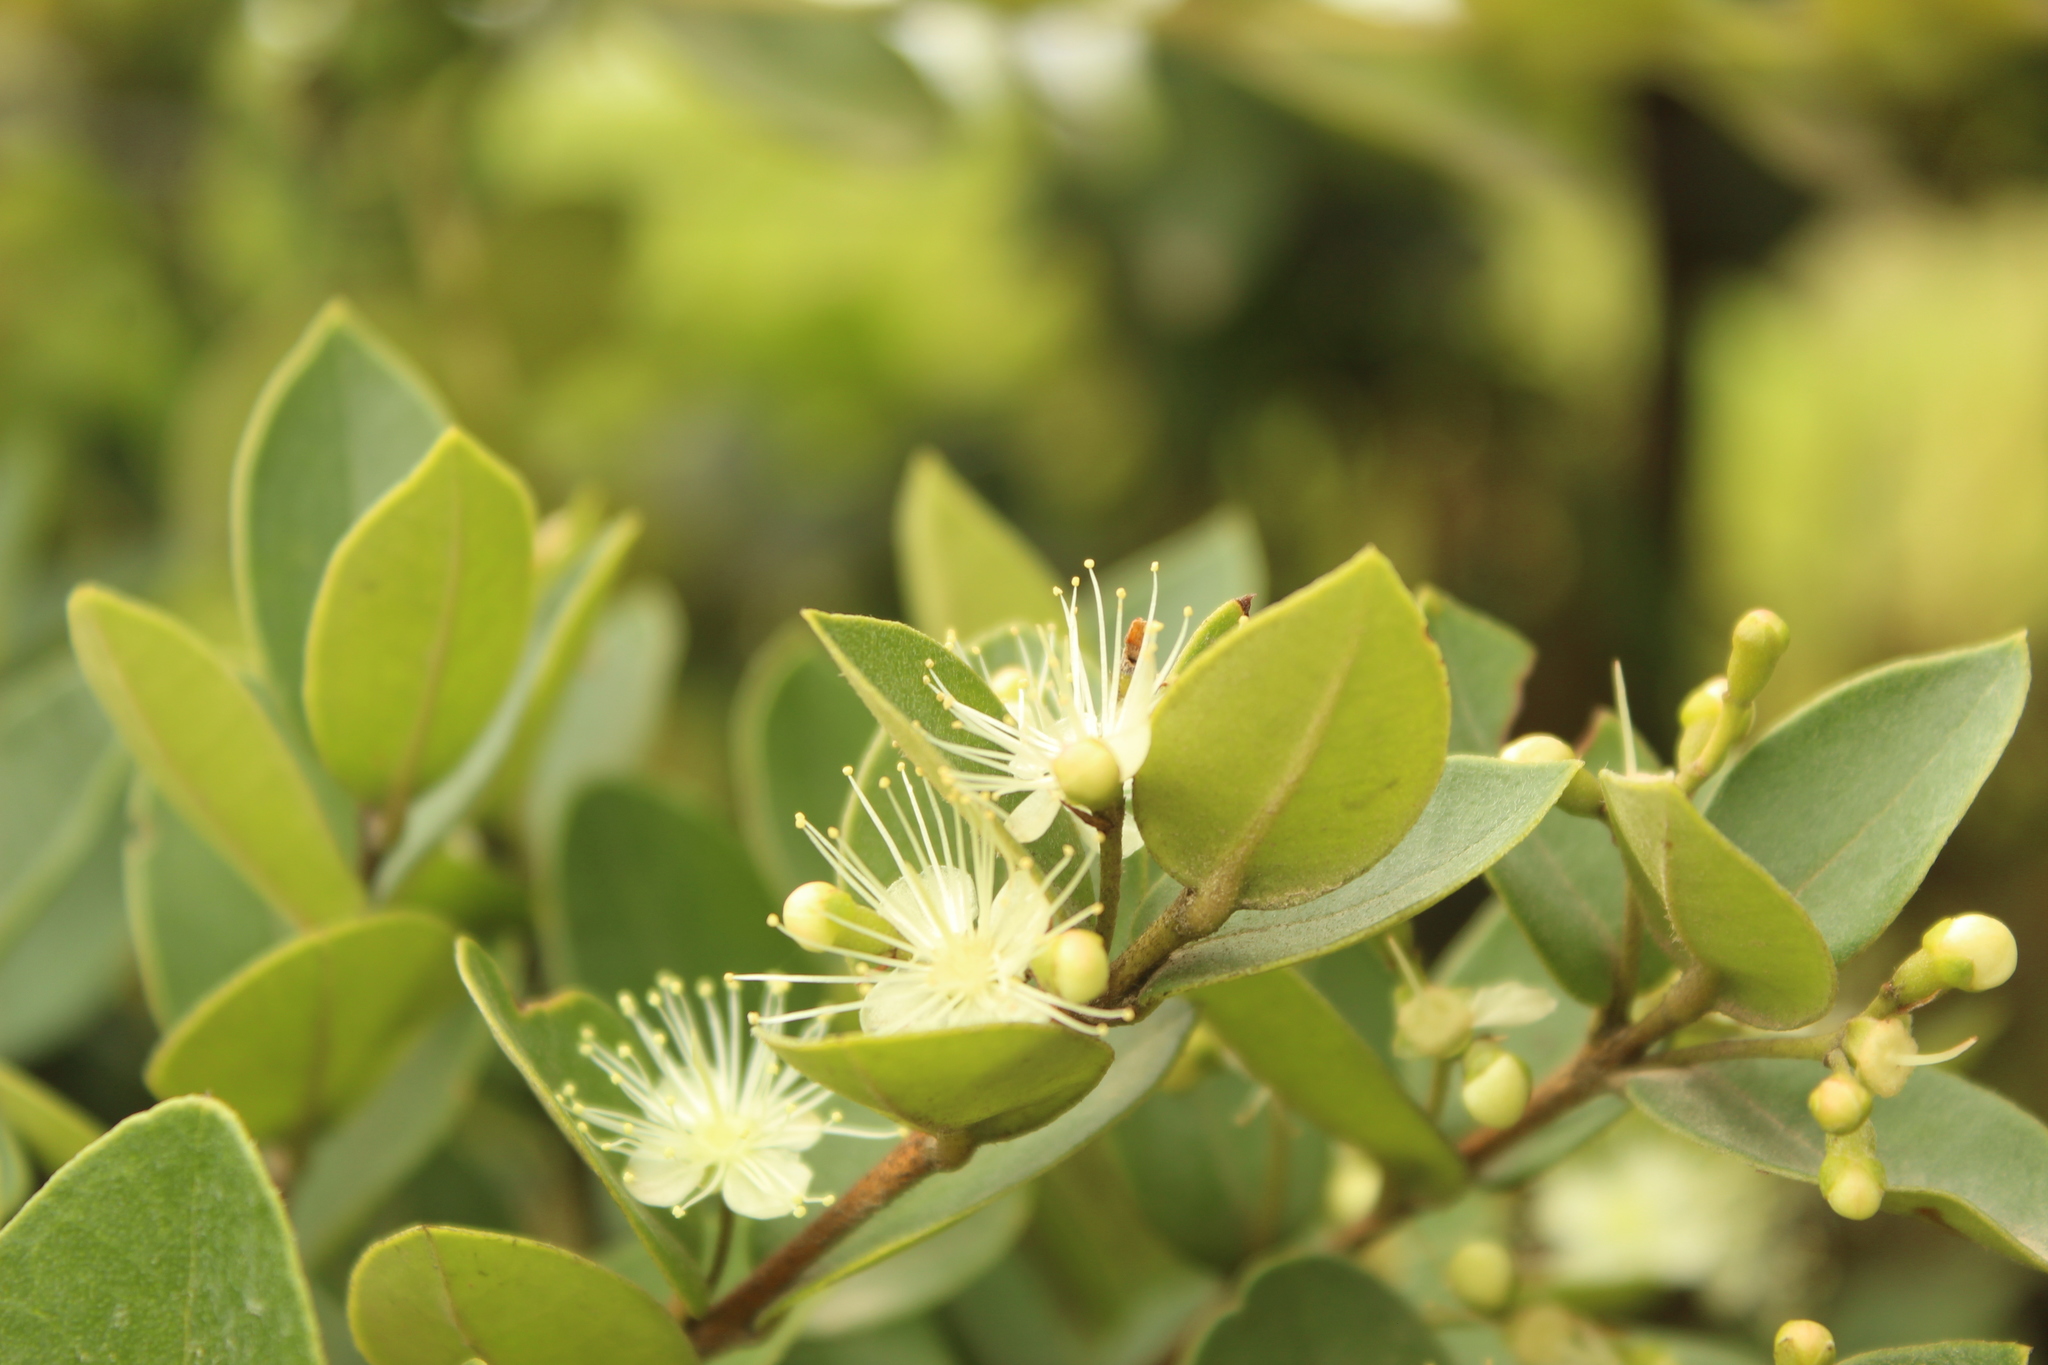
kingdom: Plantae
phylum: Tracheophyta
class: Magnoliopsida
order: Myrtales
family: Myrtaceae
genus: Myrcianthes
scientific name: Myrcianthes leucoxyla
